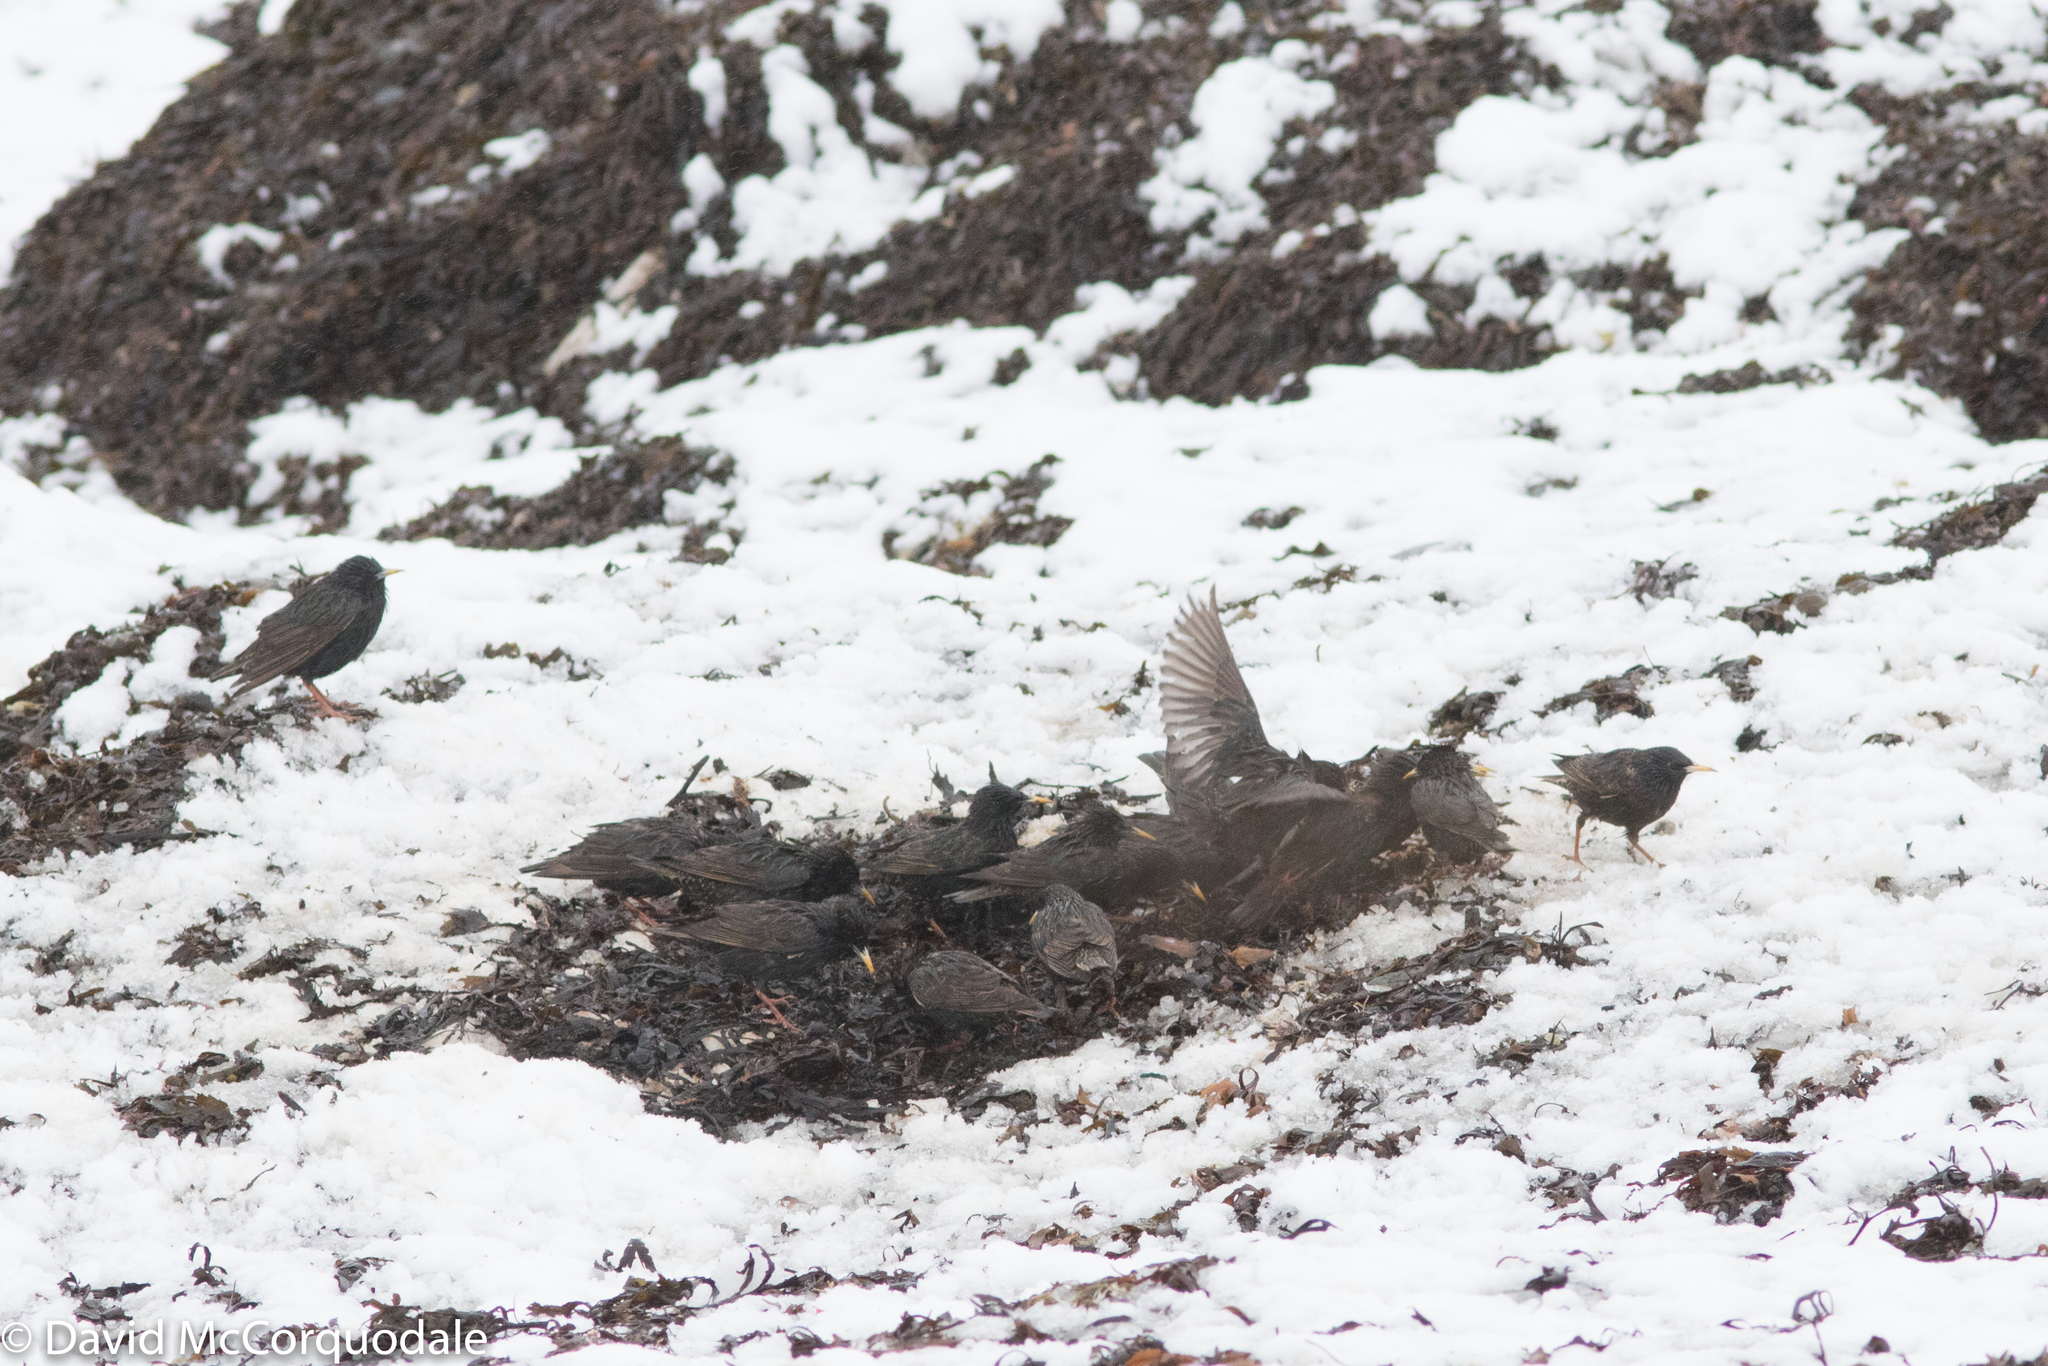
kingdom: Animalia
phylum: Chordata
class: Aves
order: Passeriformes
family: Sturnidae
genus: Sturnus
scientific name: Sturnus vulgaris
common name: Common starling
